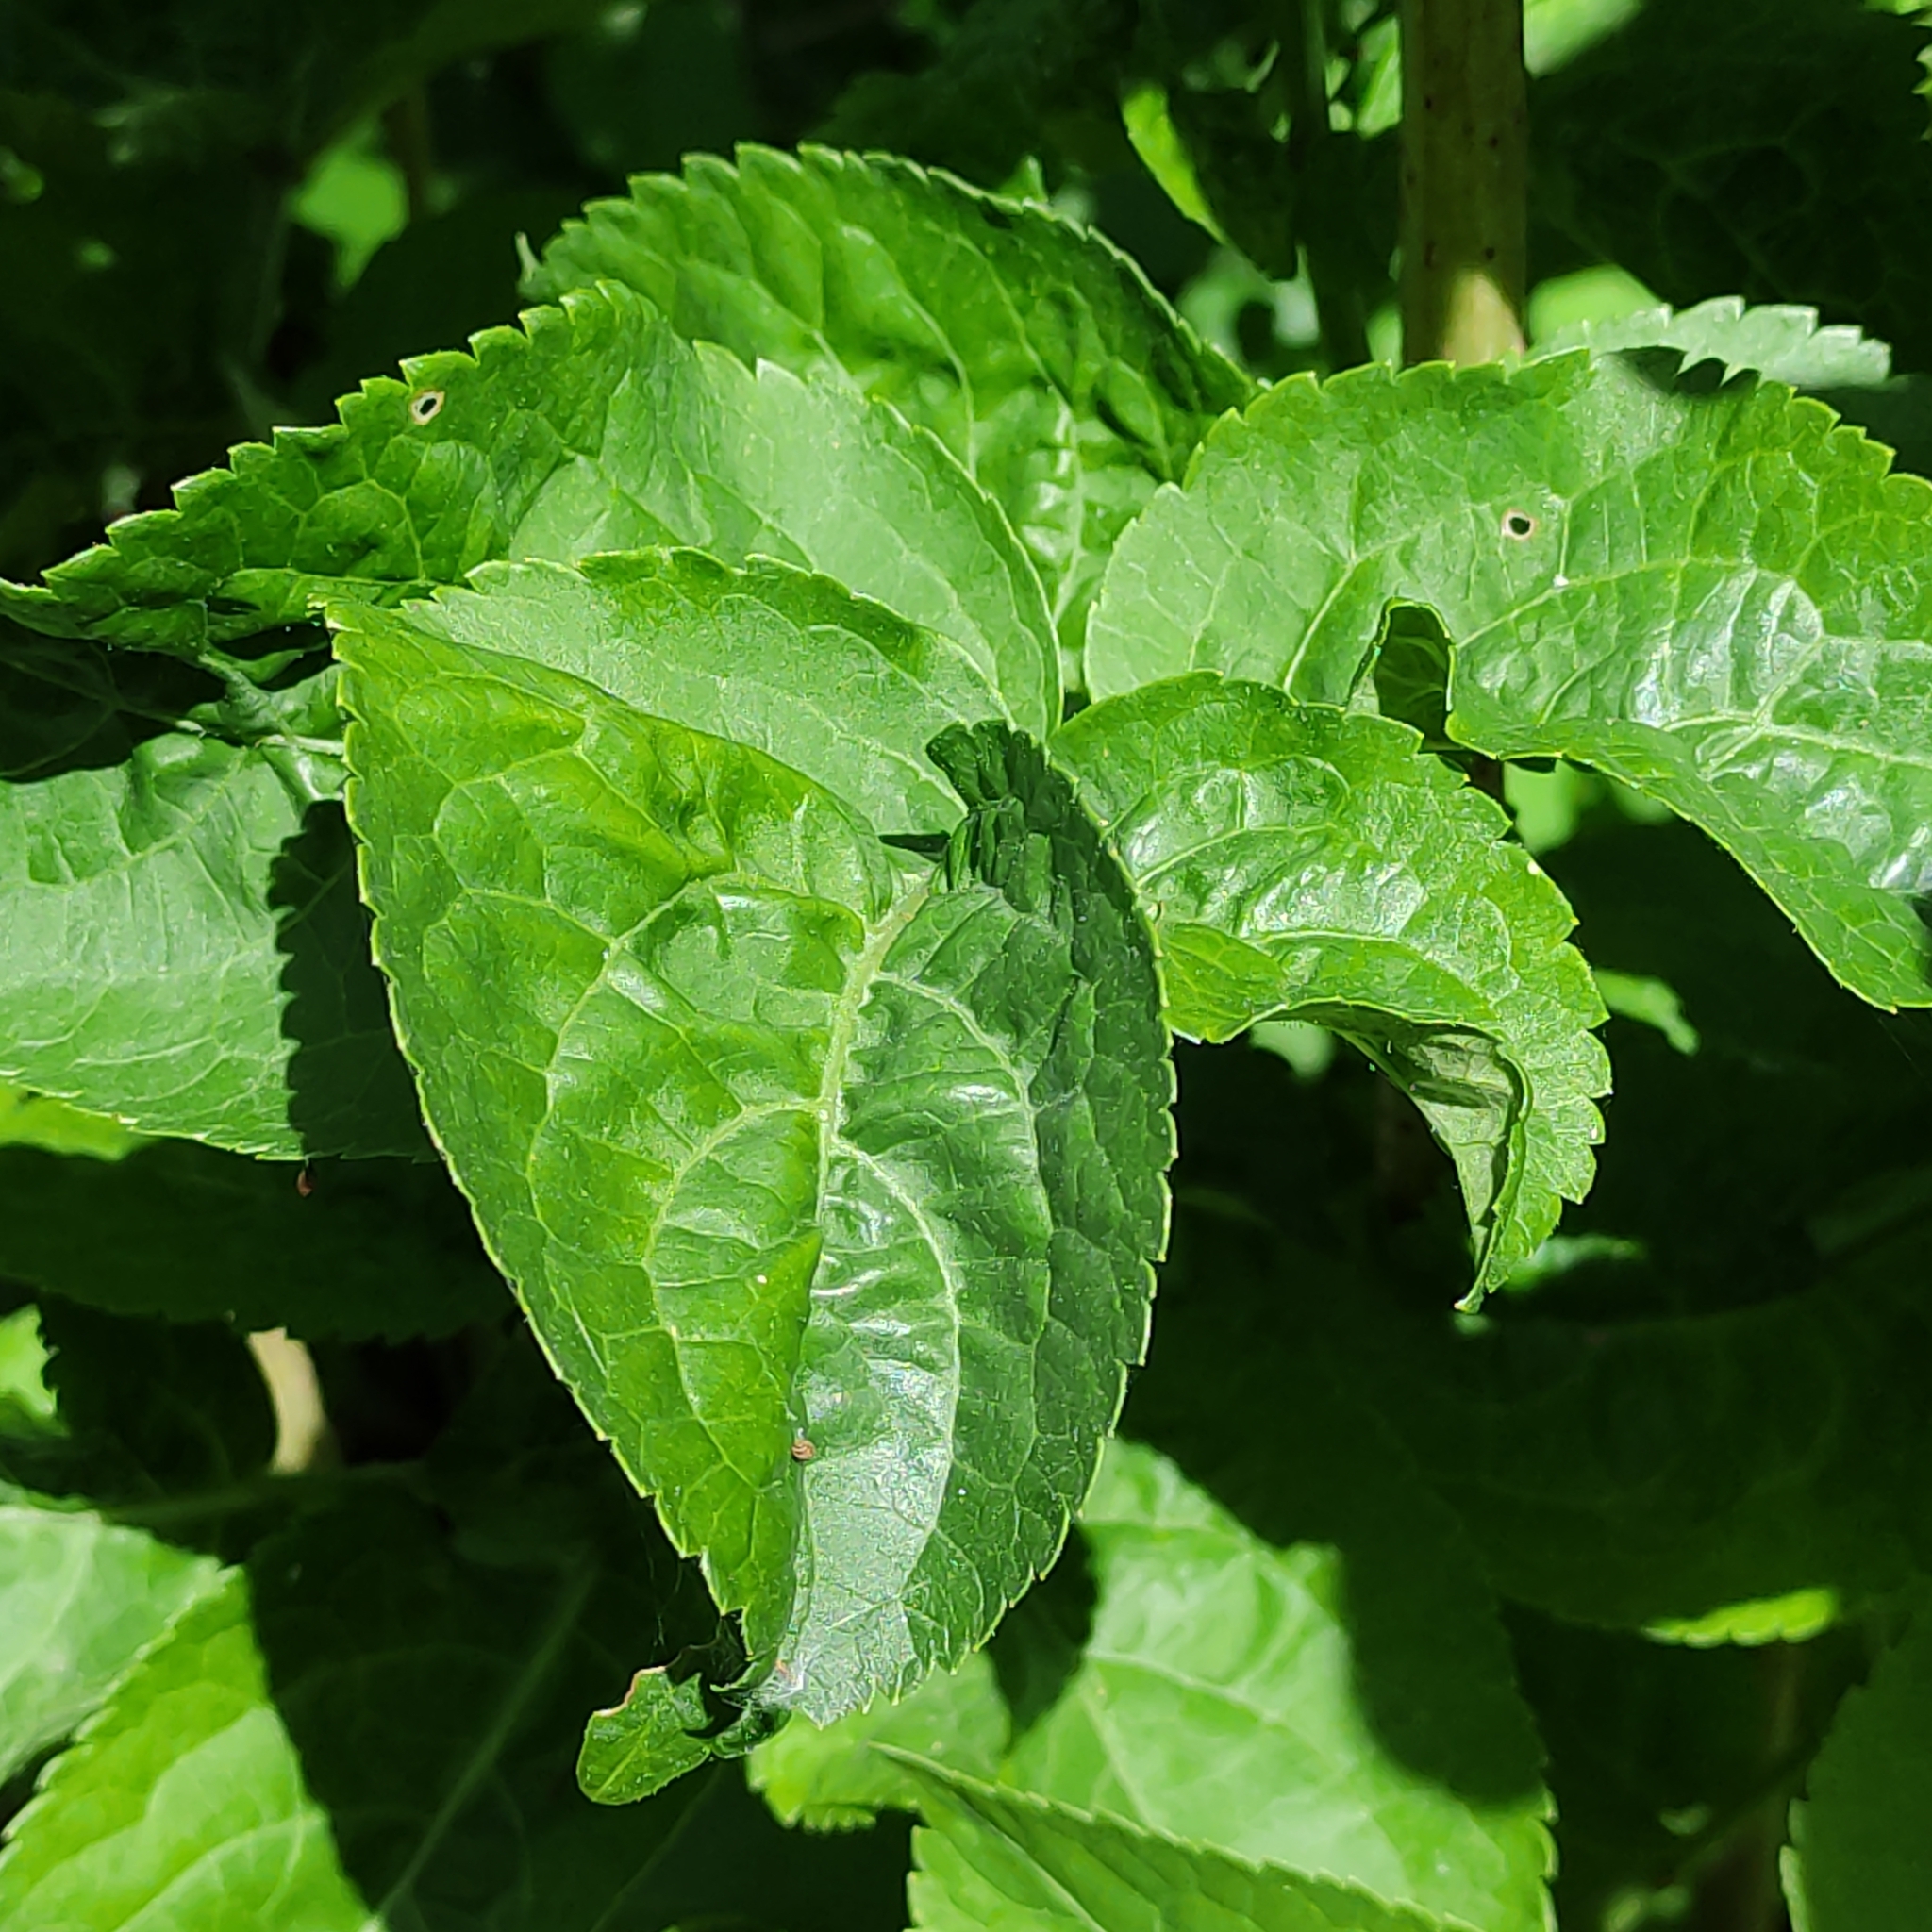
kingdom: Plantae
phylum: Tracheophyta
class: Magnoliopsida
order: Dipsacales
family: Viburnaceae
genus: Sambucus
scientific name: Sambucus nigra
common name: Elder
